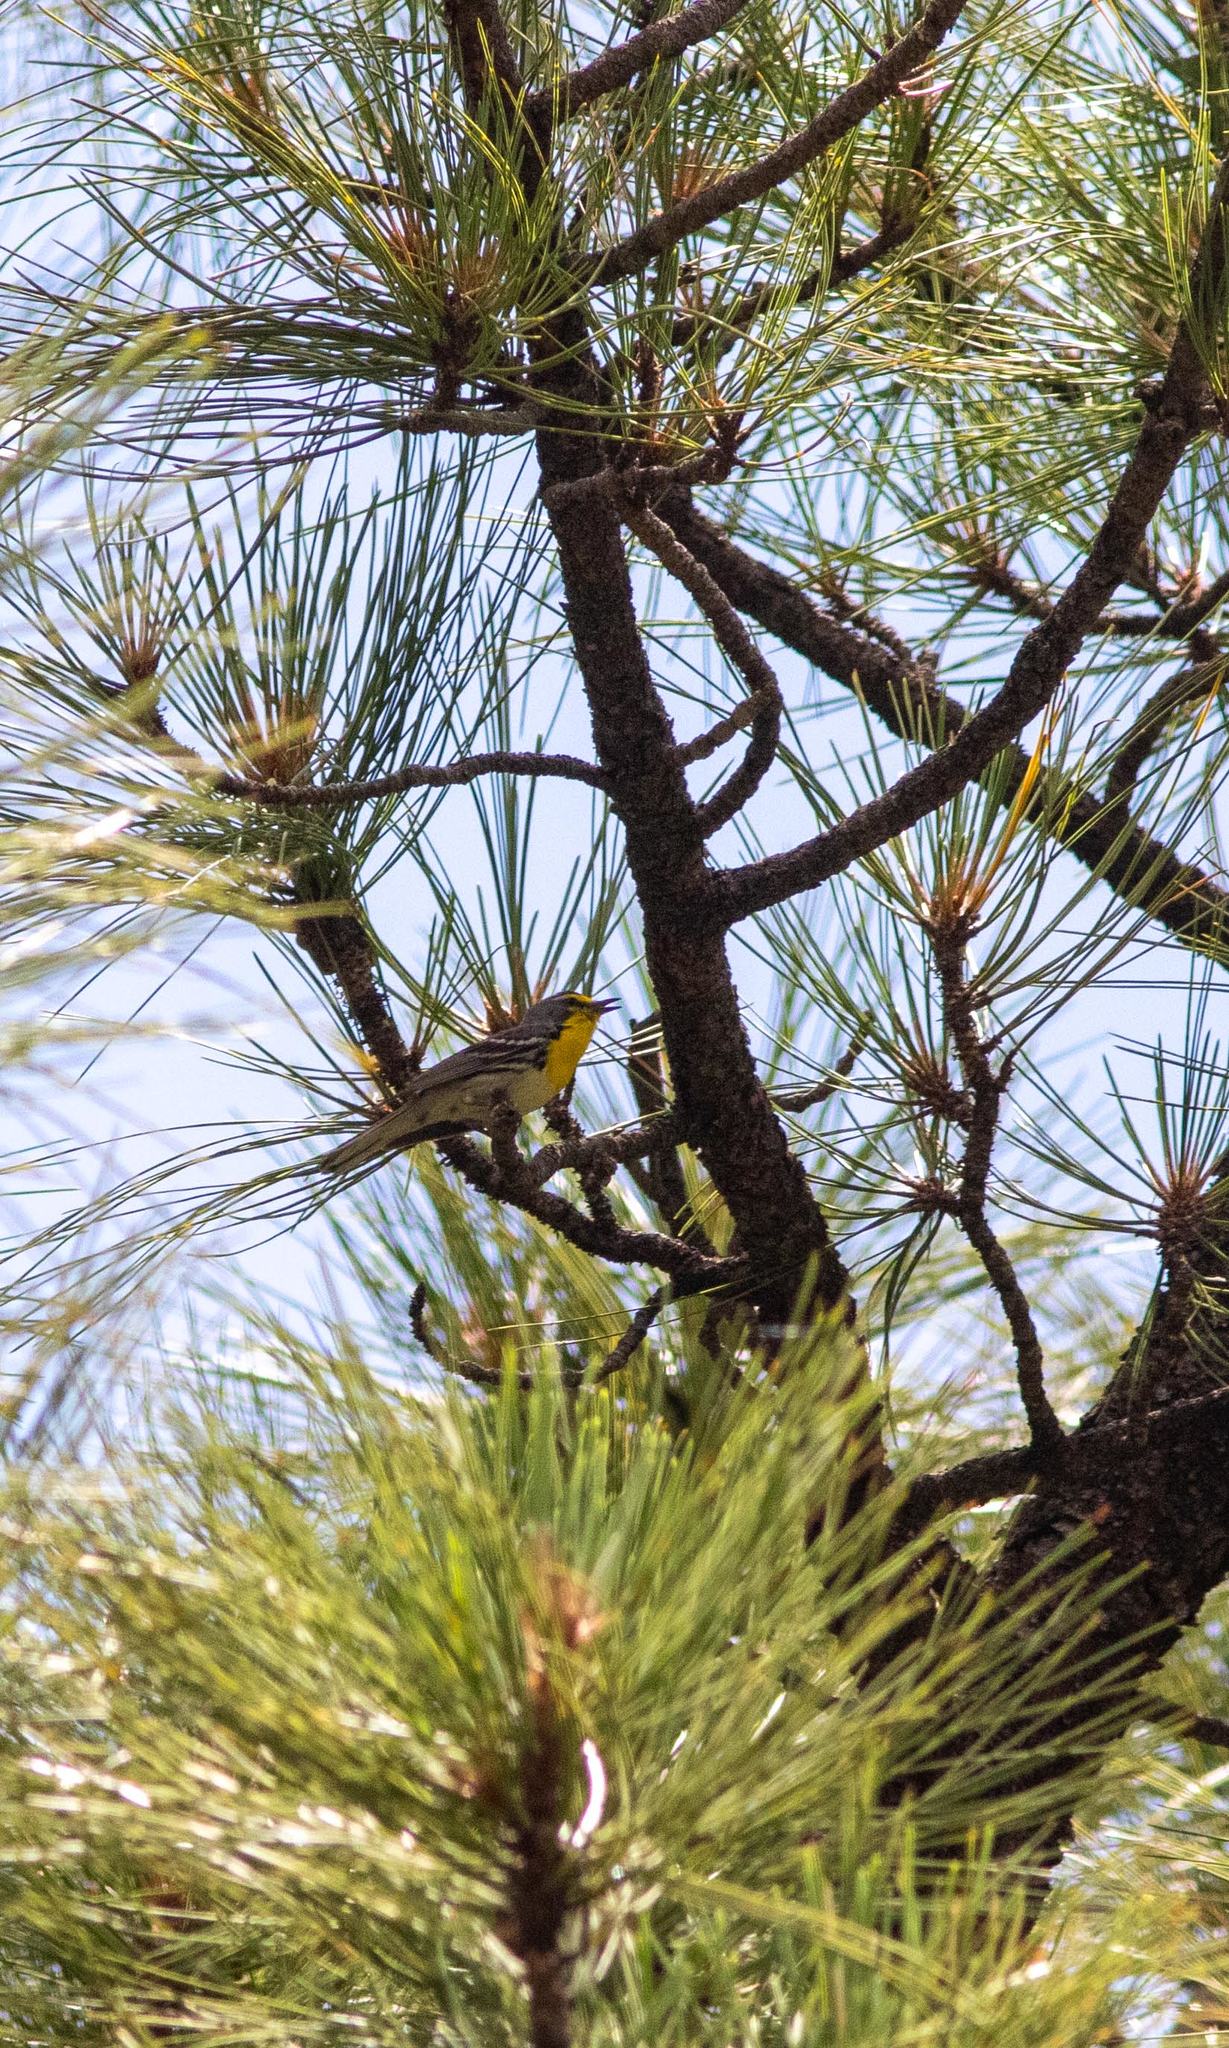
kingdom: Animalia
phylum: Chordata
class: Aves
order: Passeriformes
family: Parulidae
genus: Setophaga
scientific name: Setophaga graciae
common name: Grace's warbler
